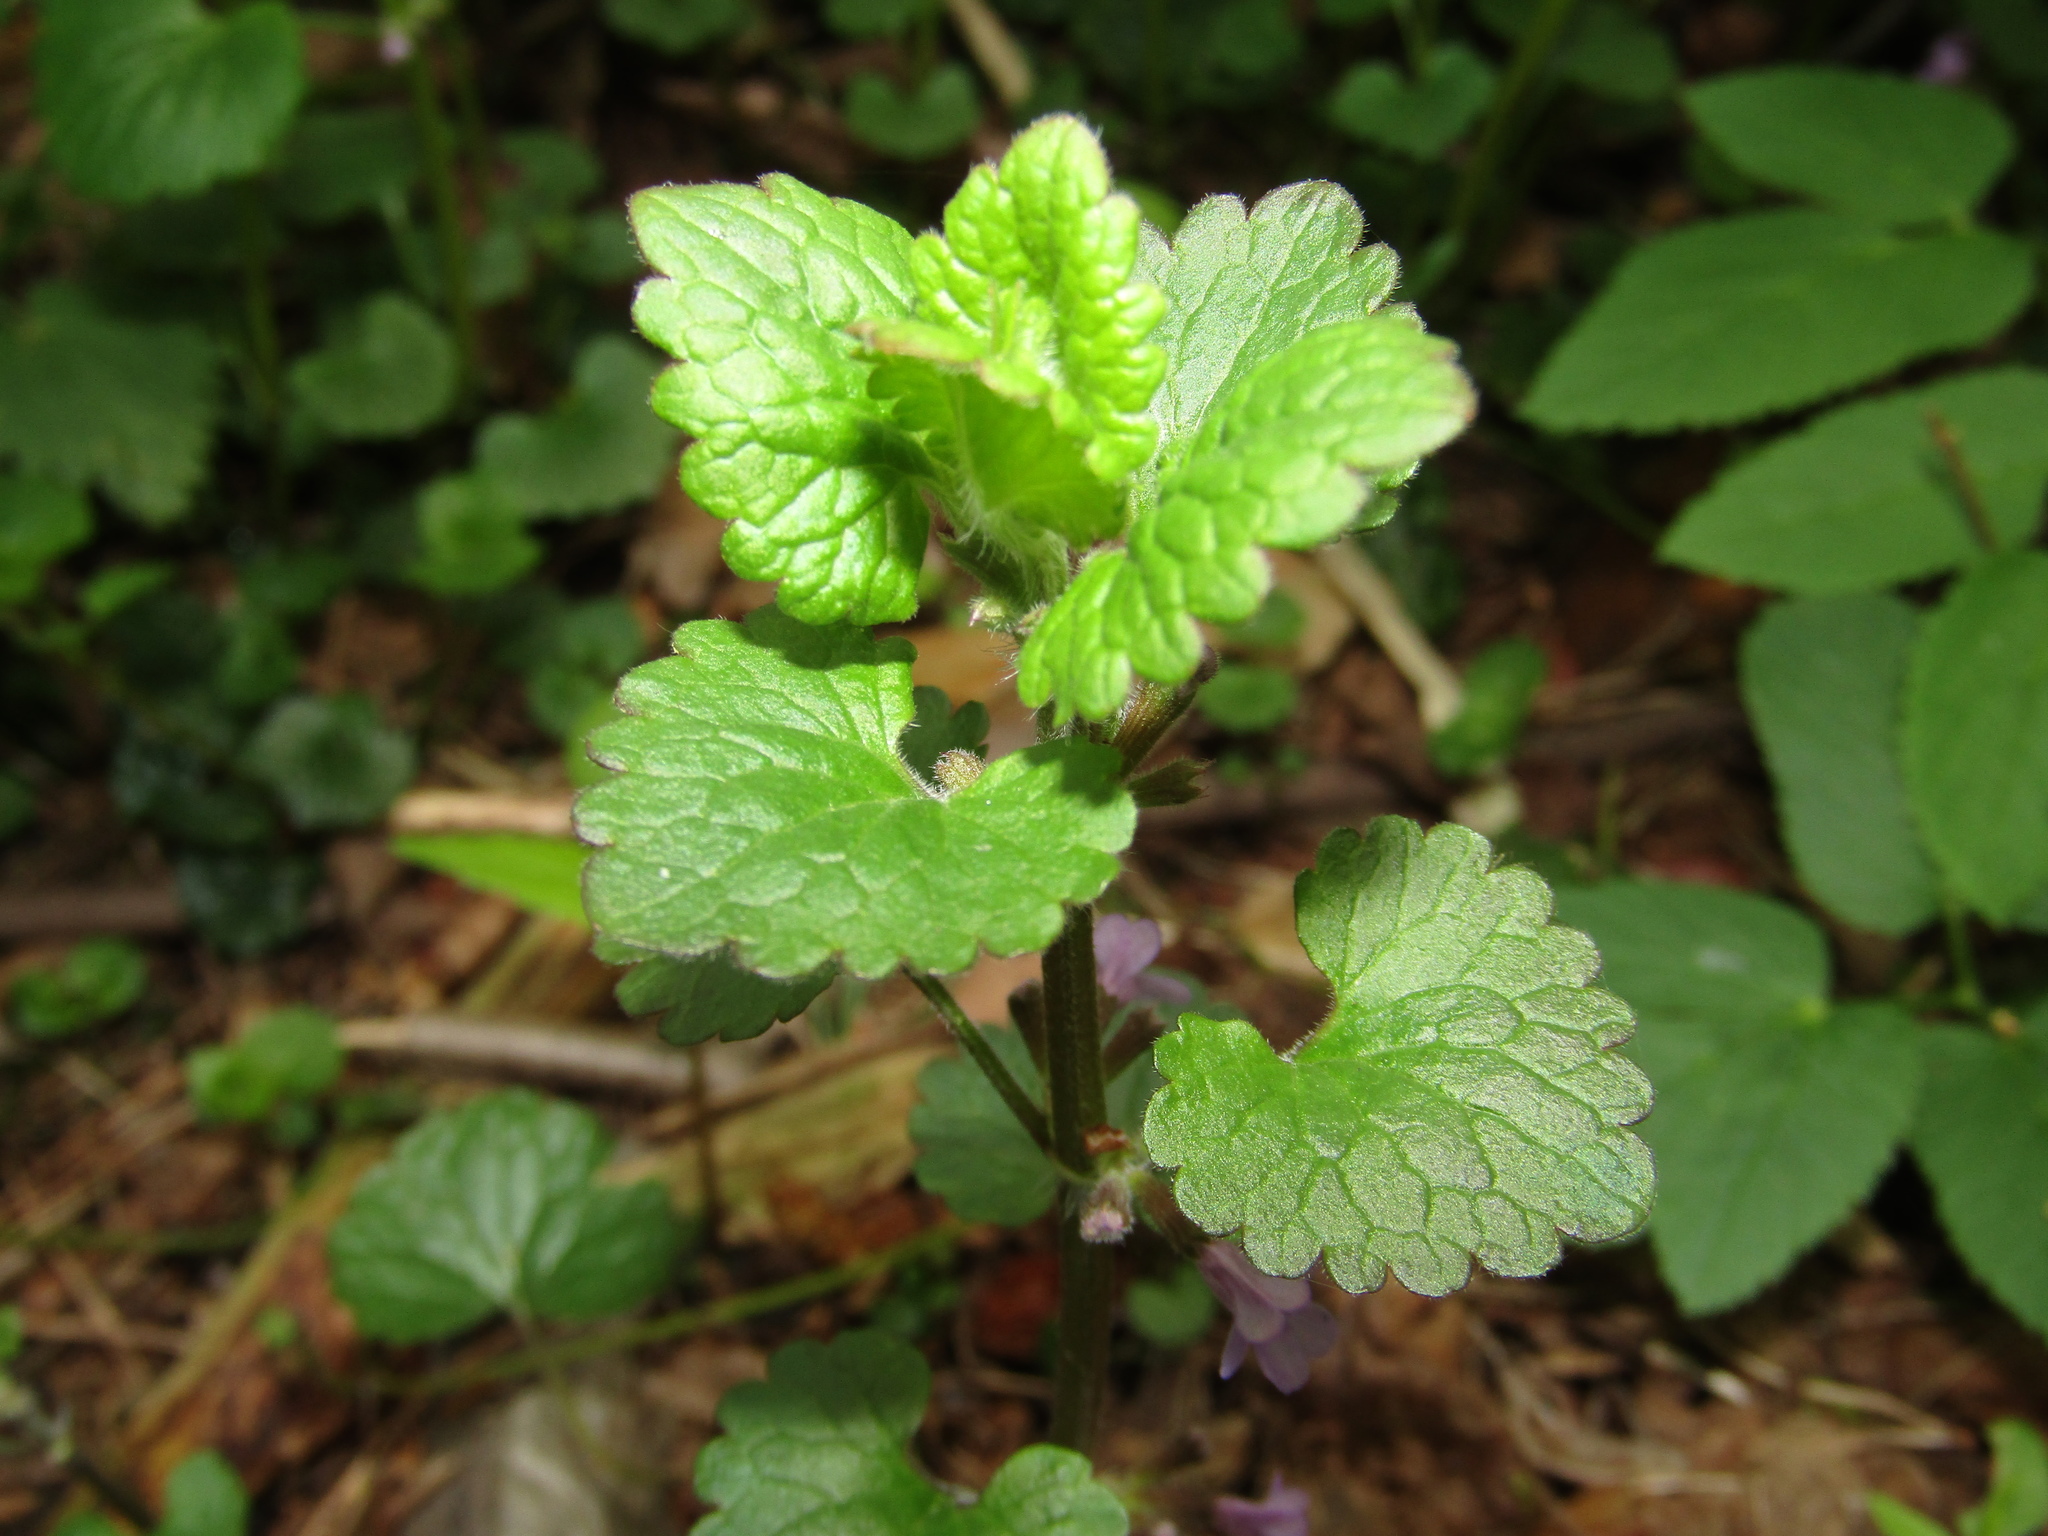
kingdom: Plantae
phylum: Tracheophyta
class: Magnoliopsida
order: Lamiales
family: Lamiaceae
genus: Glechoma
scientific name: Glechoma hederacea
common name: Ground ivy
